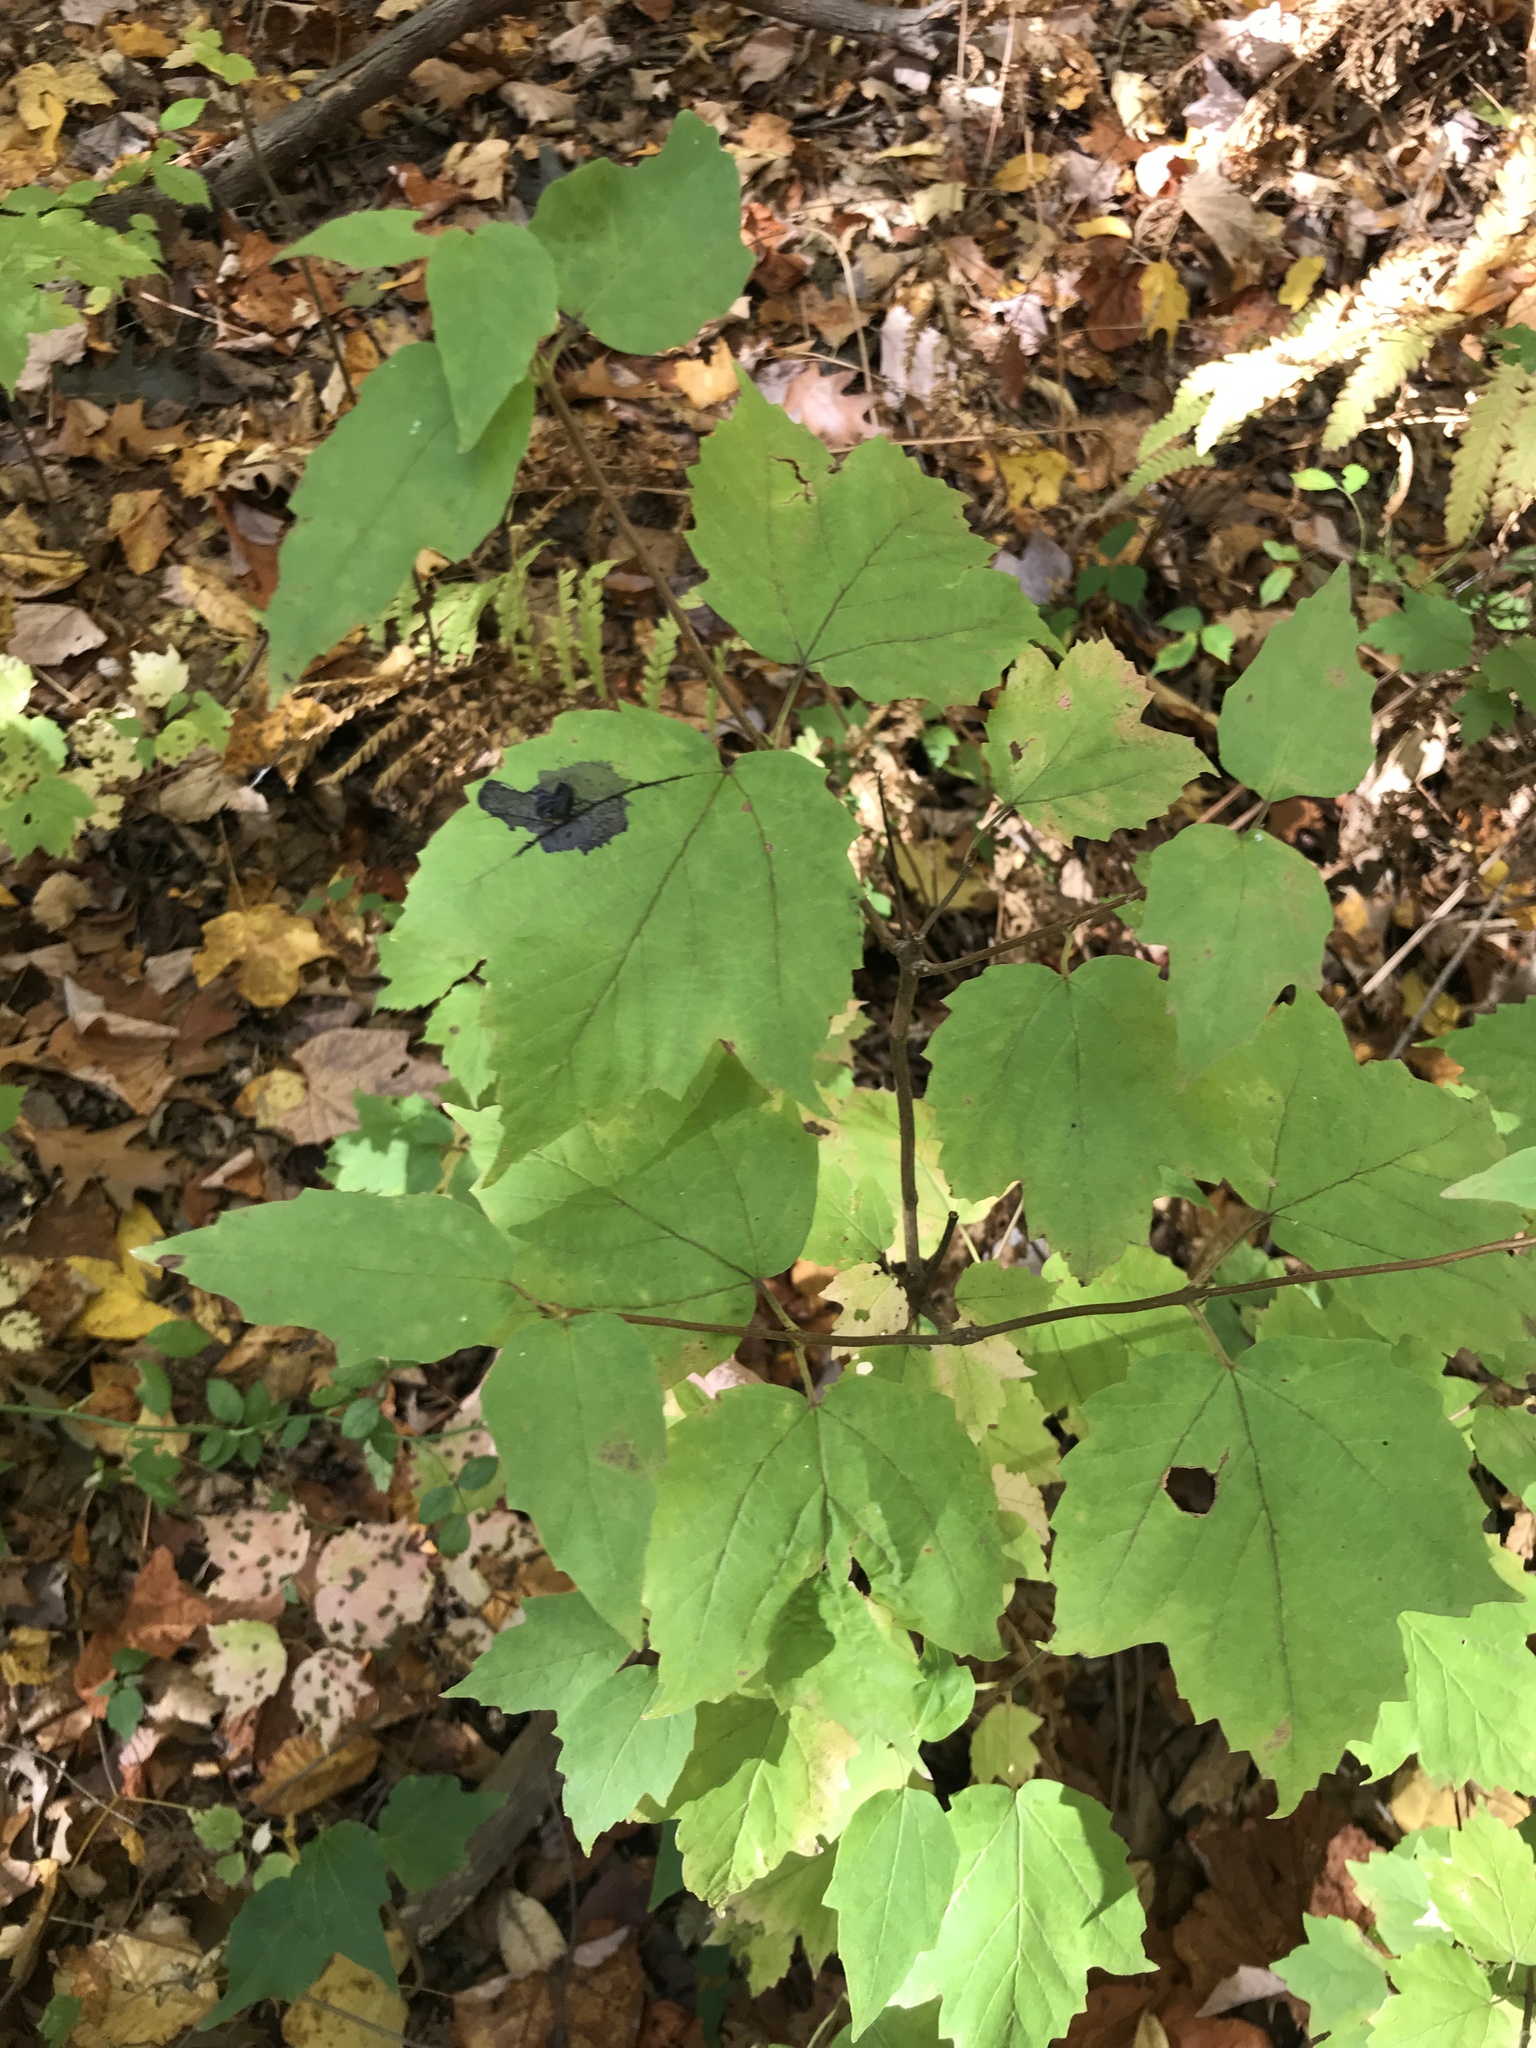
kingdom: Plantae
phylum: Tracheophyta
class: Magnoliopsida
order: Dipsacales
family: Viburnaceae
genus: Viburnum
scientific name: Viburnum acerifolium
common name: Dockmackie
